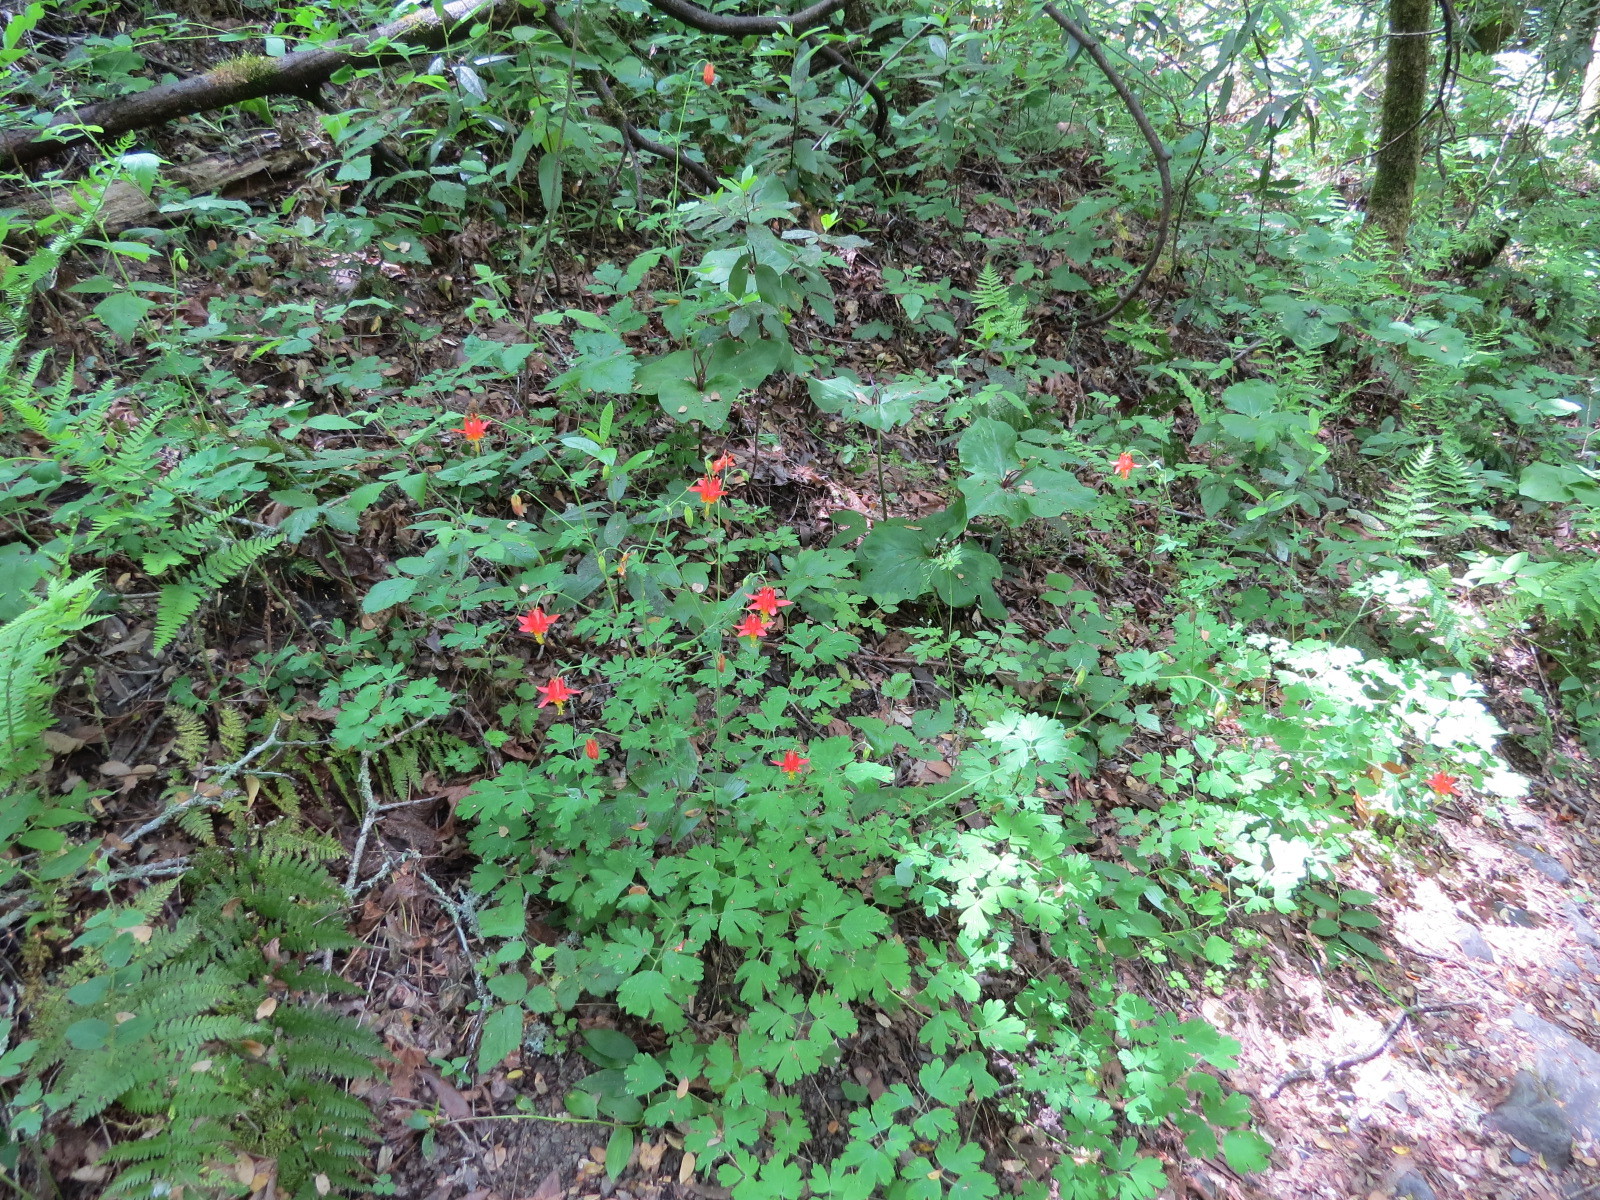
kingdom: Plantae
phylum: Tracheophyta
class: Magnoliopsida
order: Ranunculales
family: Ranunculaceae
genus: Aquilegia
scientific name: Aquilegia formosa
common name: Sitka columbine
